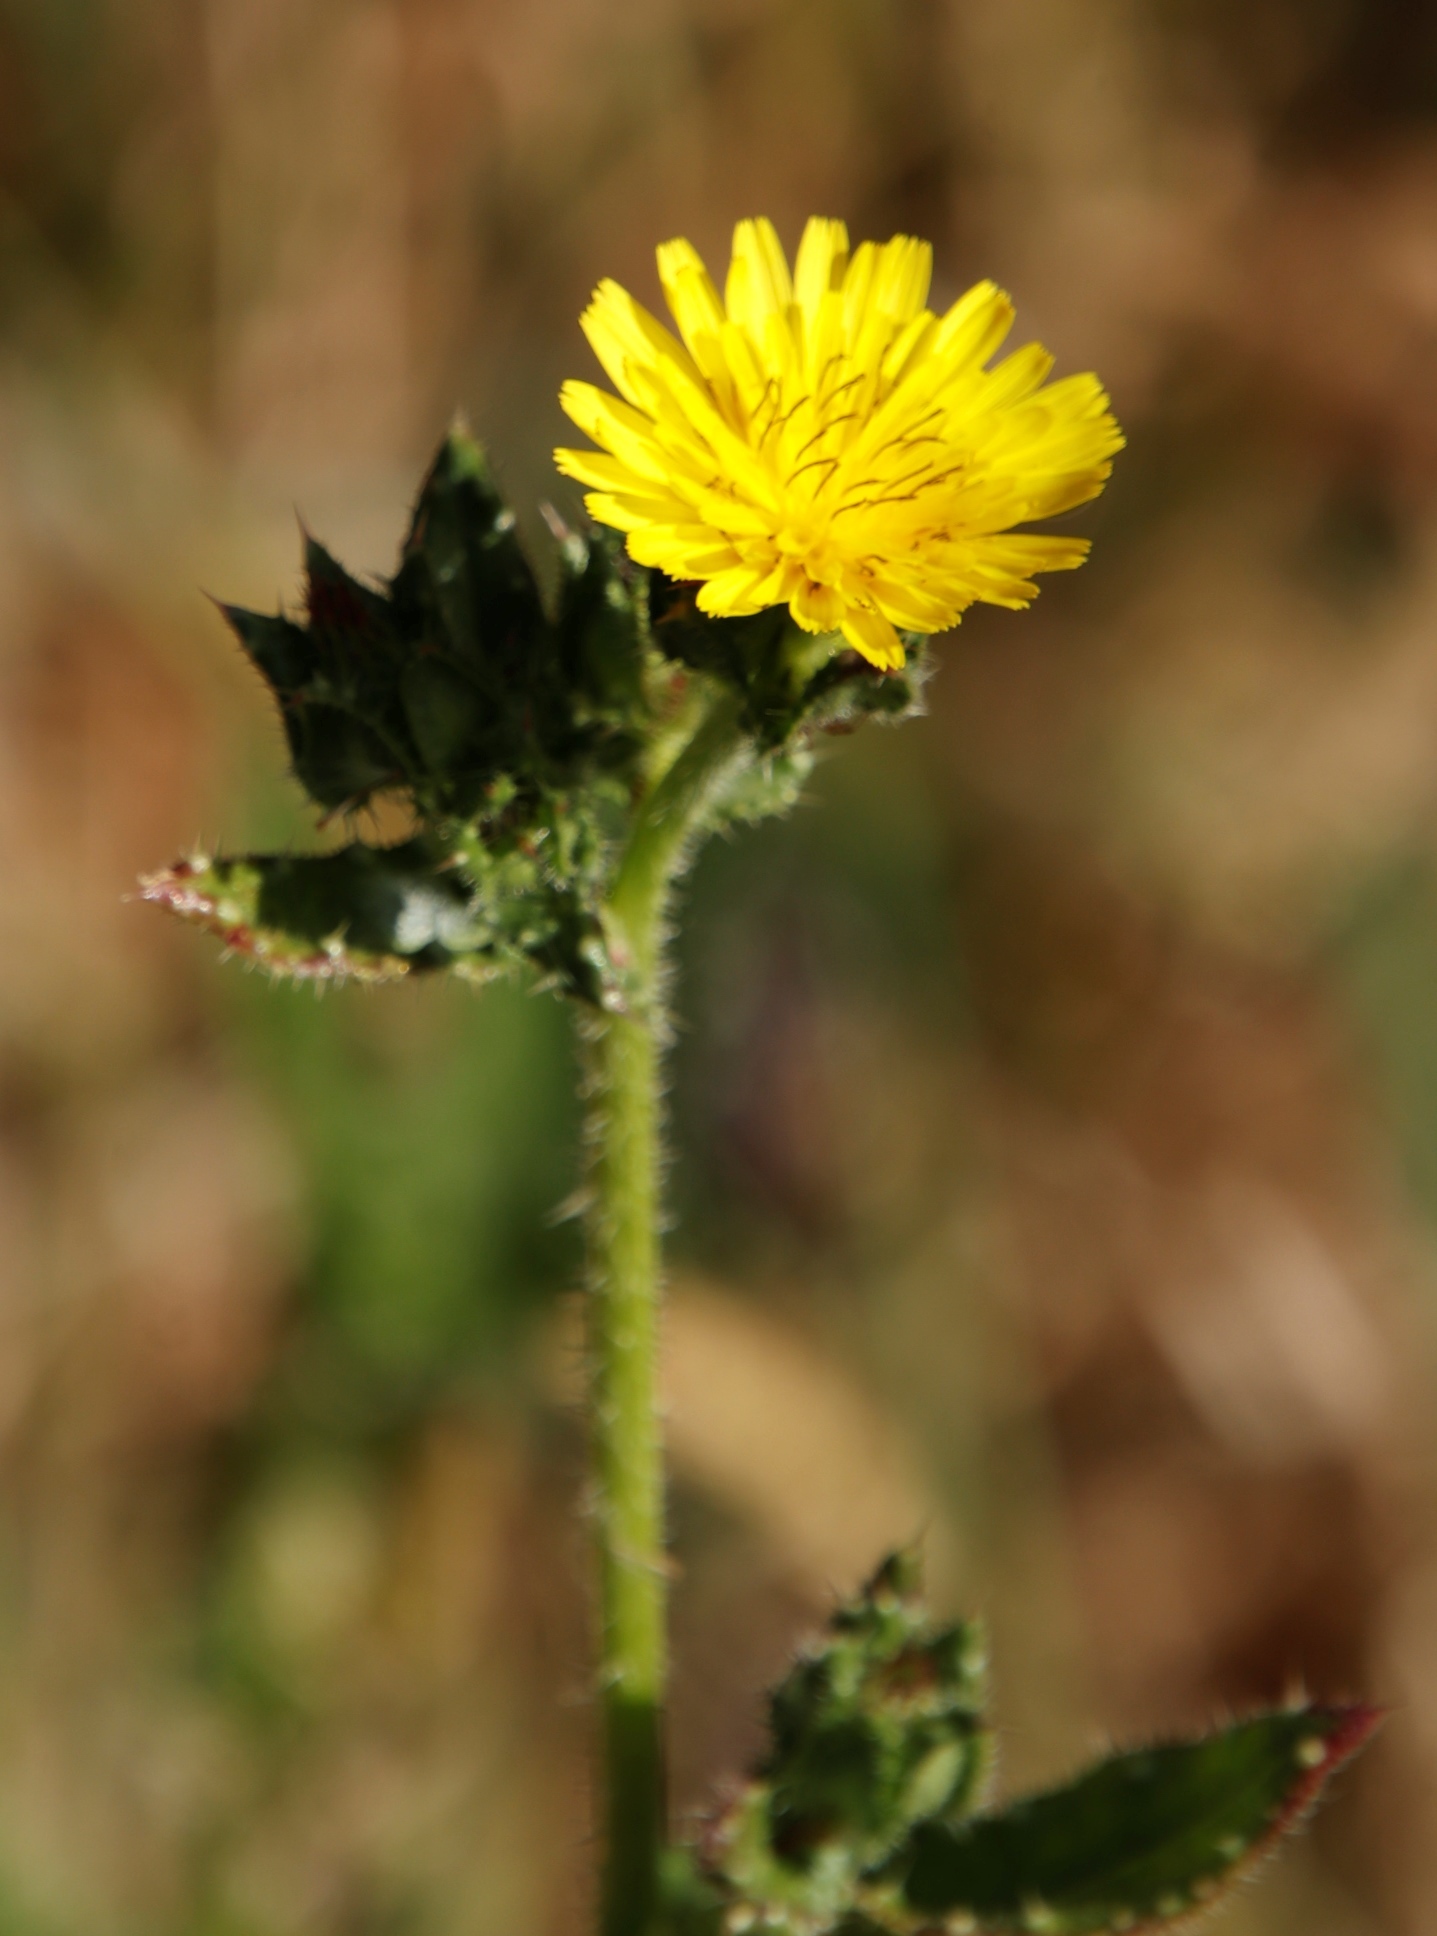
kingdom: Plantae
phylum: Tracheophyta
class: Magnoliopsida
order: Asterales
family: Asteraceae
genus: Helminthotheca
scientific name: Helminthotheca echioides
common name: Ox-tongue
